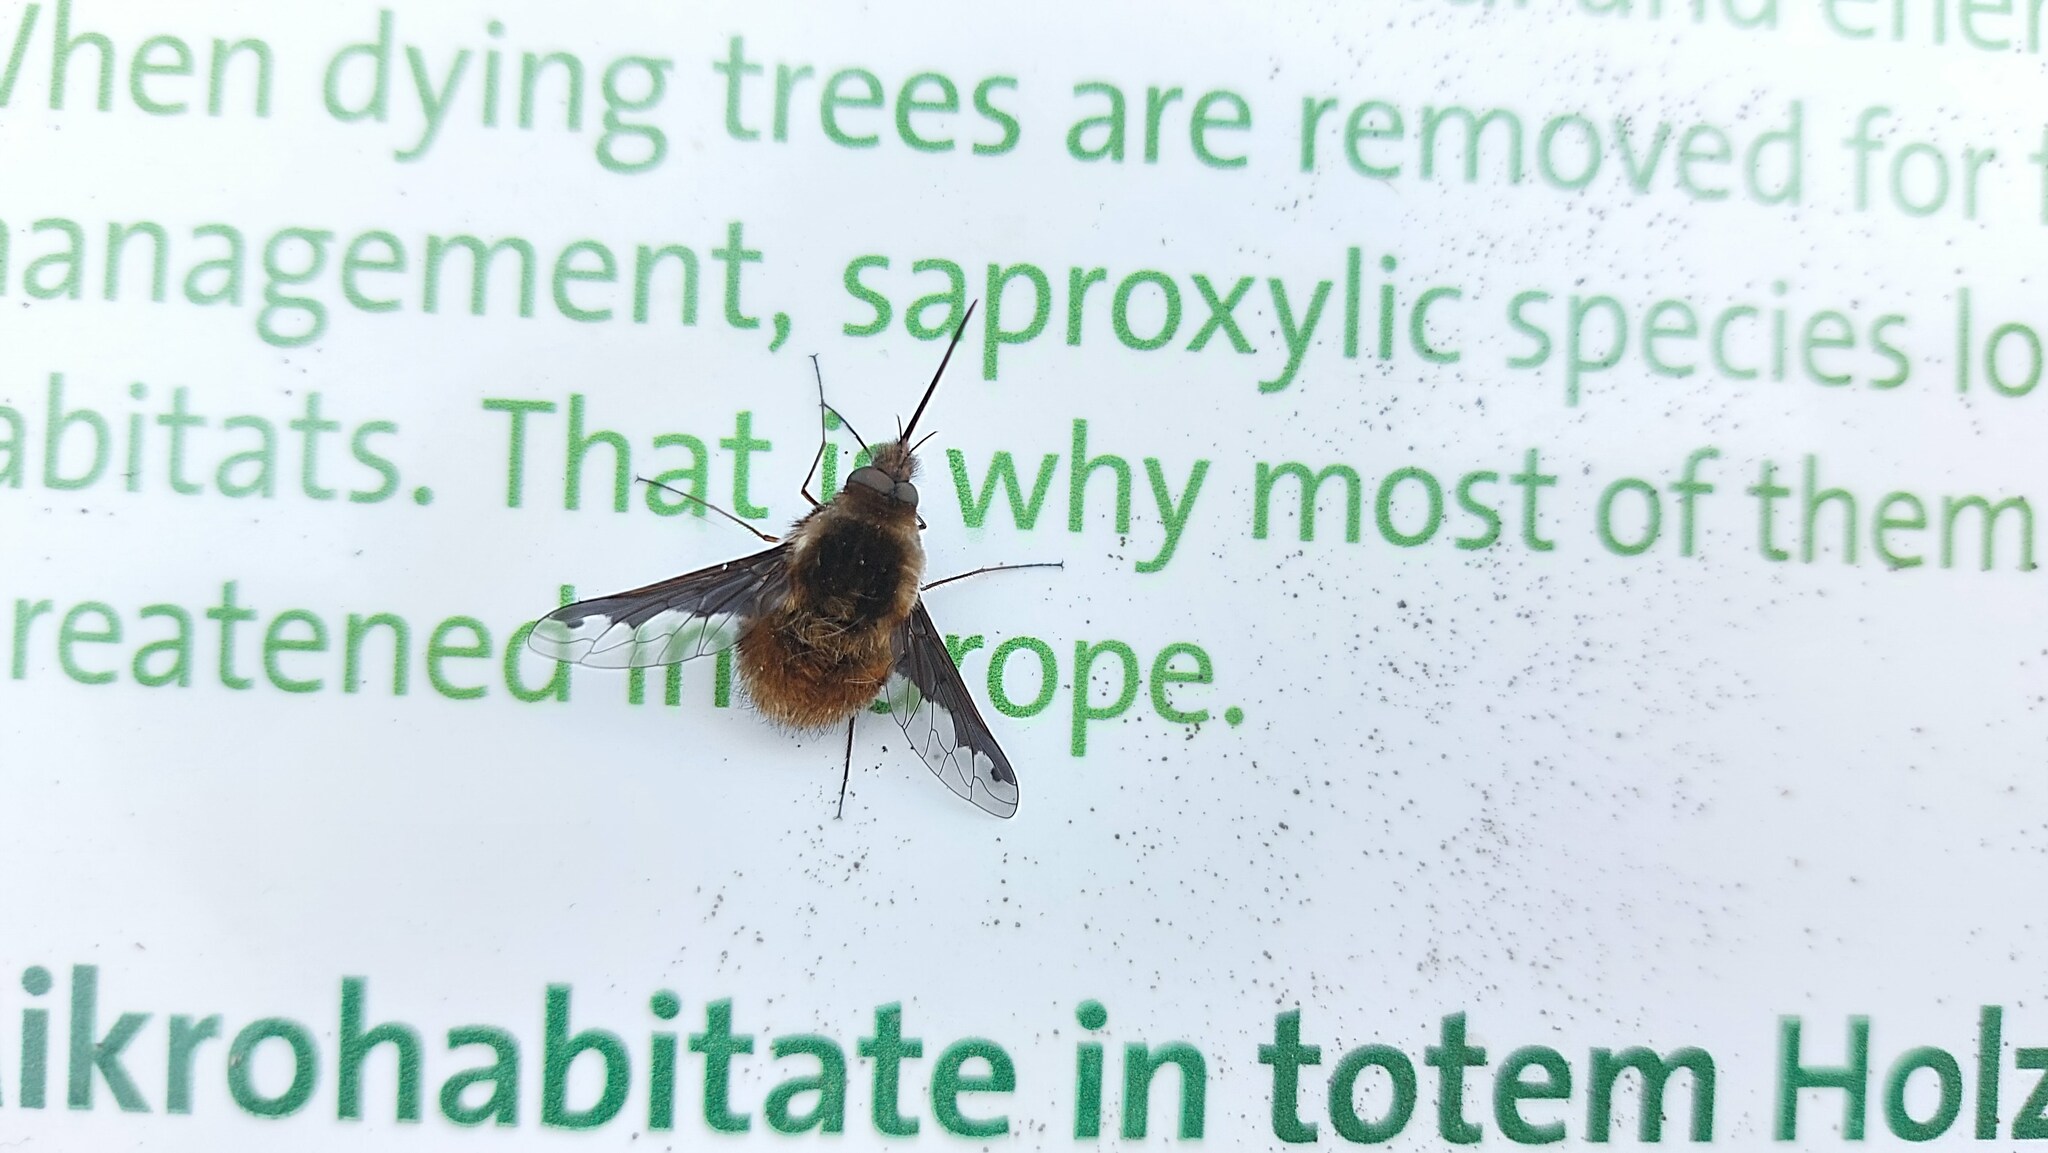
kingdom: Animalia
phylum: Arthropoda
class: Insecta
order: Diptera
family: Bombyliidae
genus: Bombylius
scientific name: Bombylius major
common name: Bee fly
